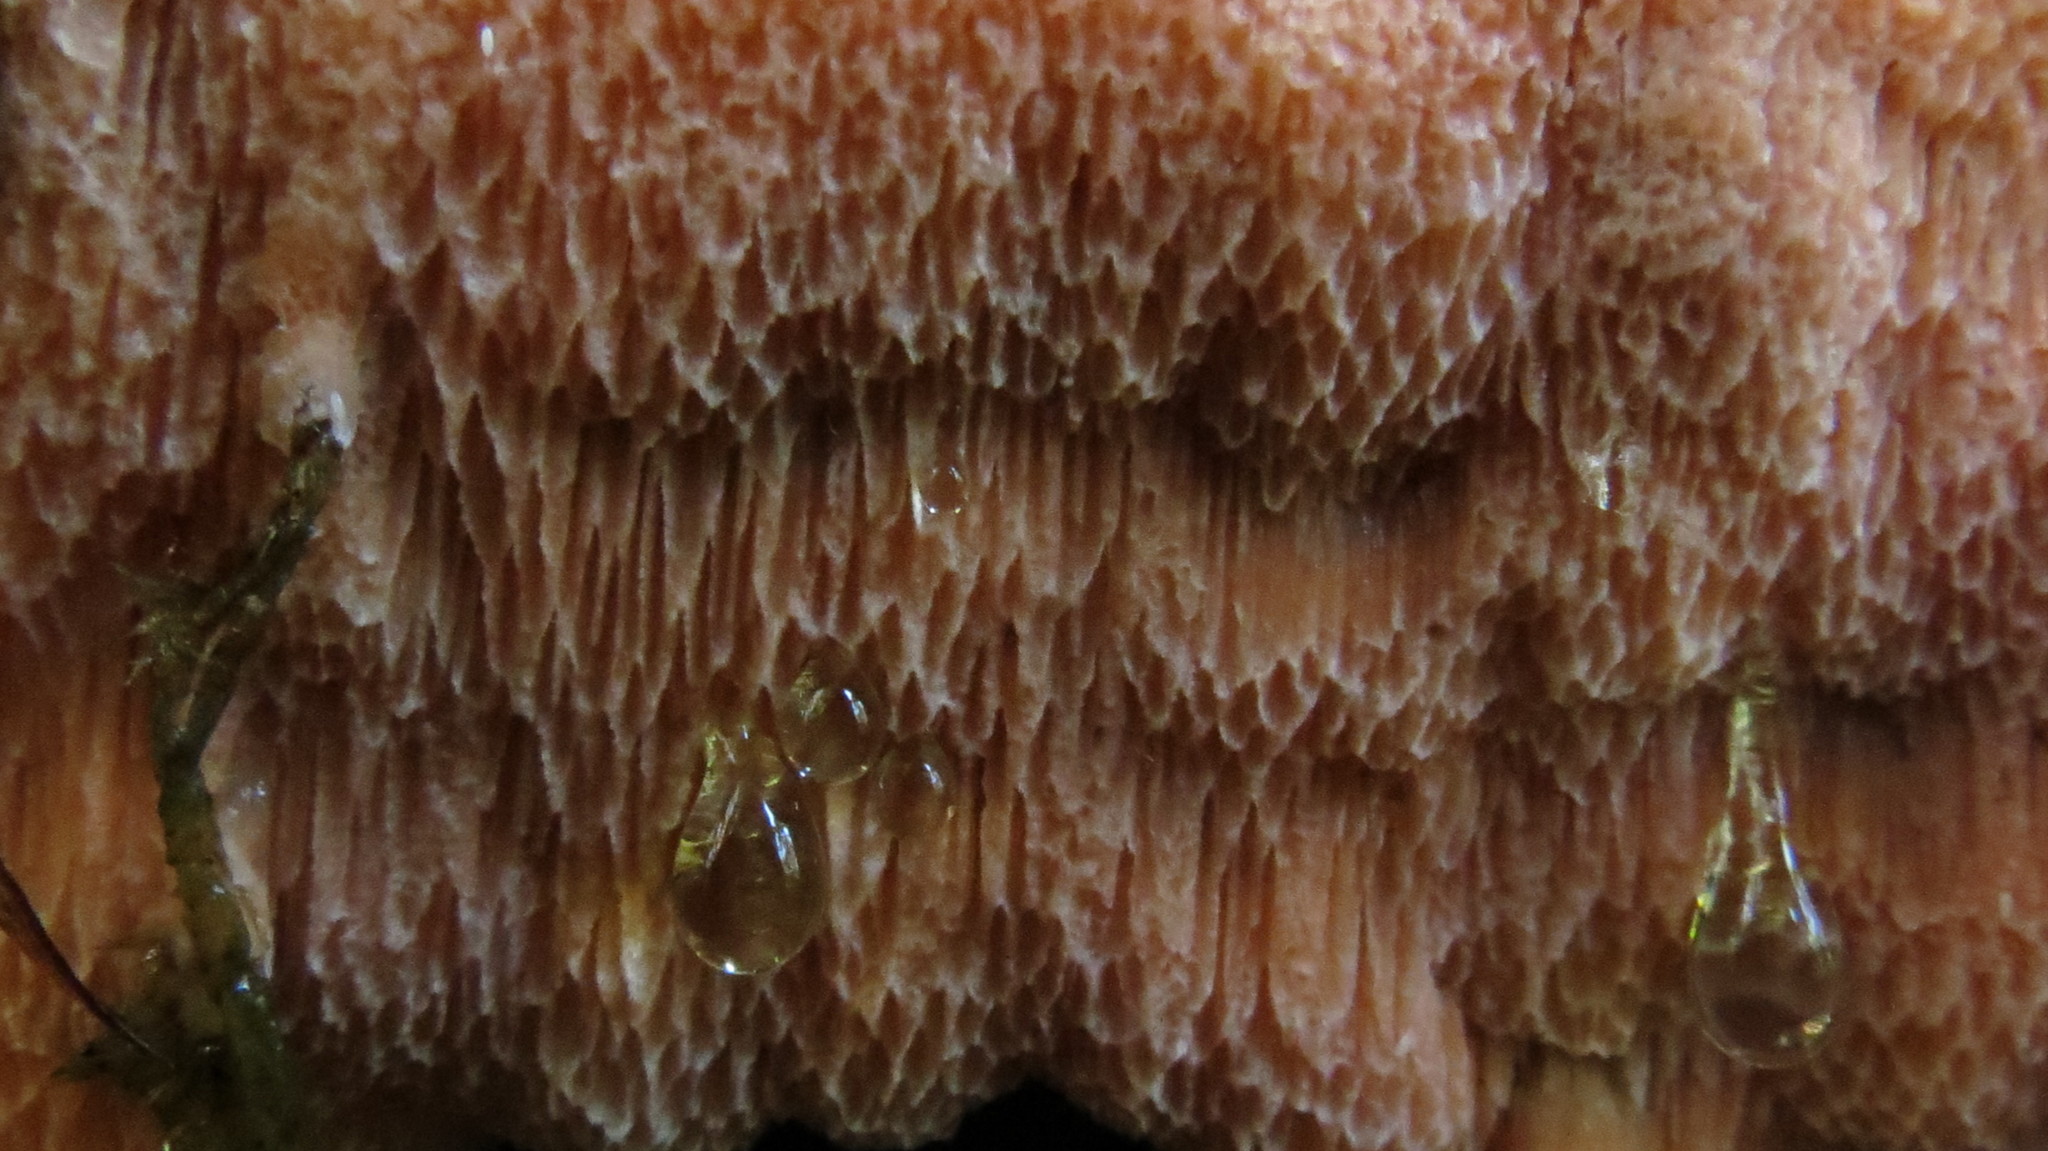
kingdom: Fungi
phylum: Basidiomycota
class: Agaricomycetes
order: Polyporales
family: Polyporaceae
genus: Rhodonia
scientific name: Rhodonia placenta
